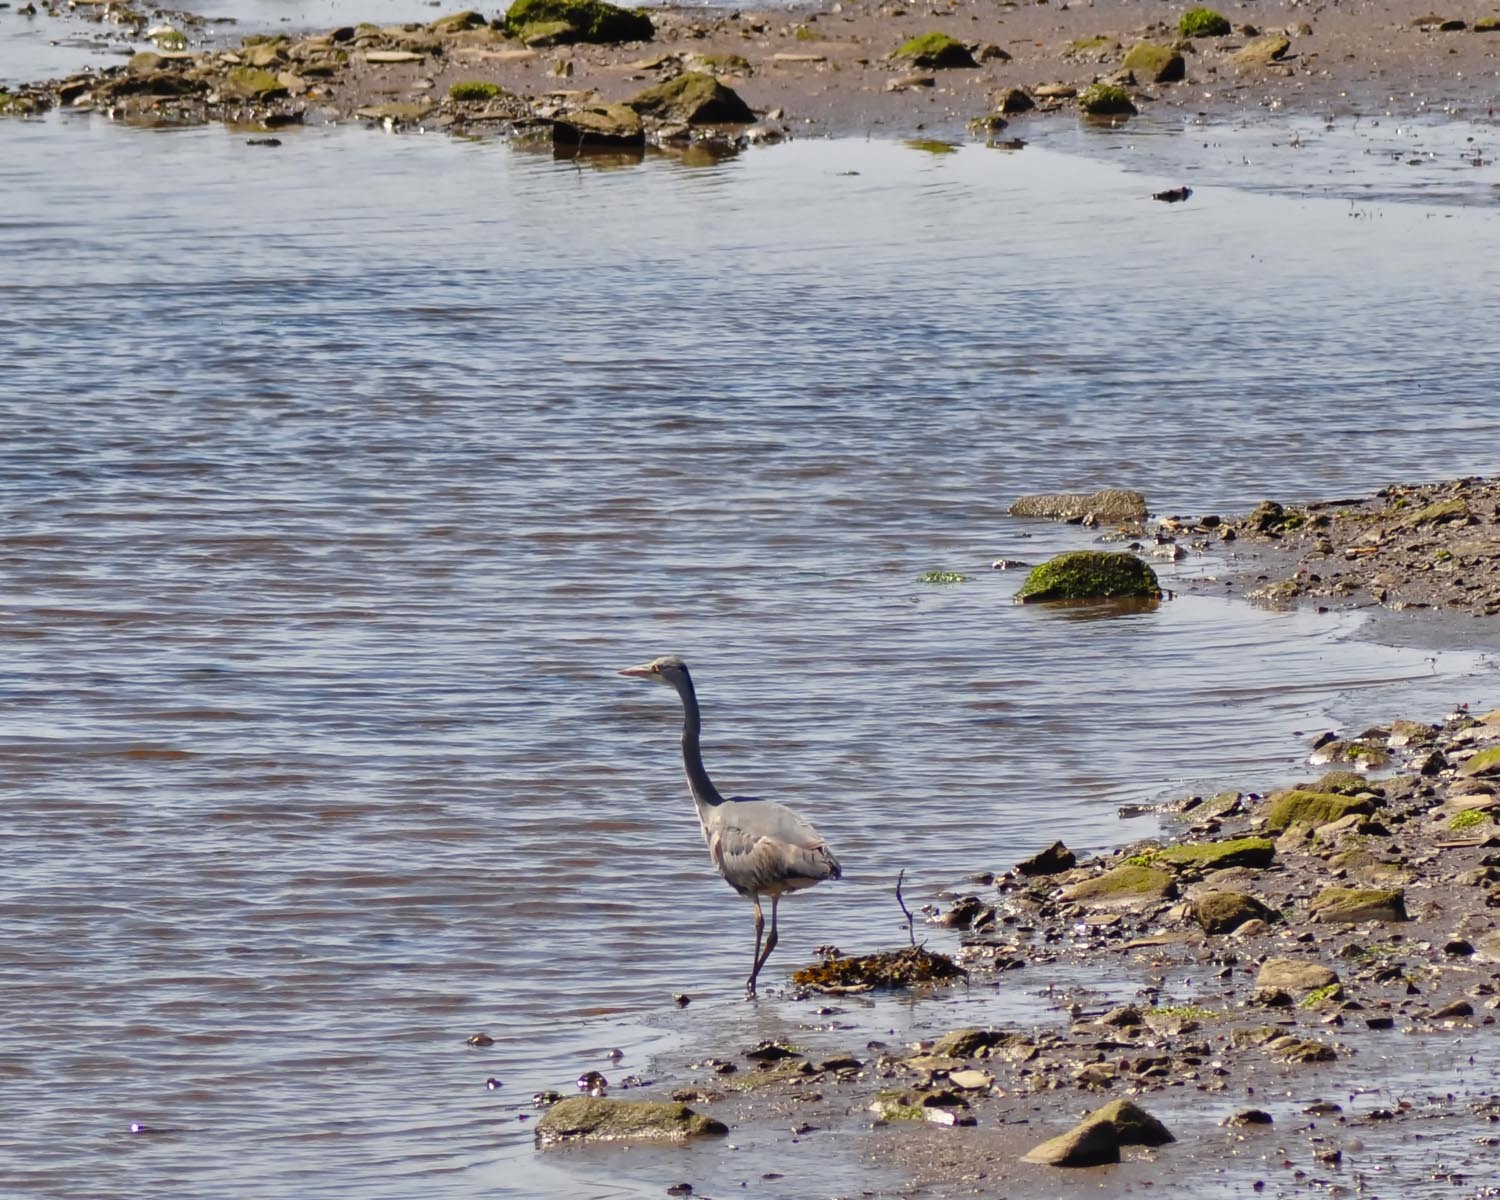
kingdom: Animalia
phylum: Chordata
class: Aves
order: Pelecaniformes
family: Ardeidae
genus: Ardea
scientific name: Ardea cinerea
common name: Grey heron
